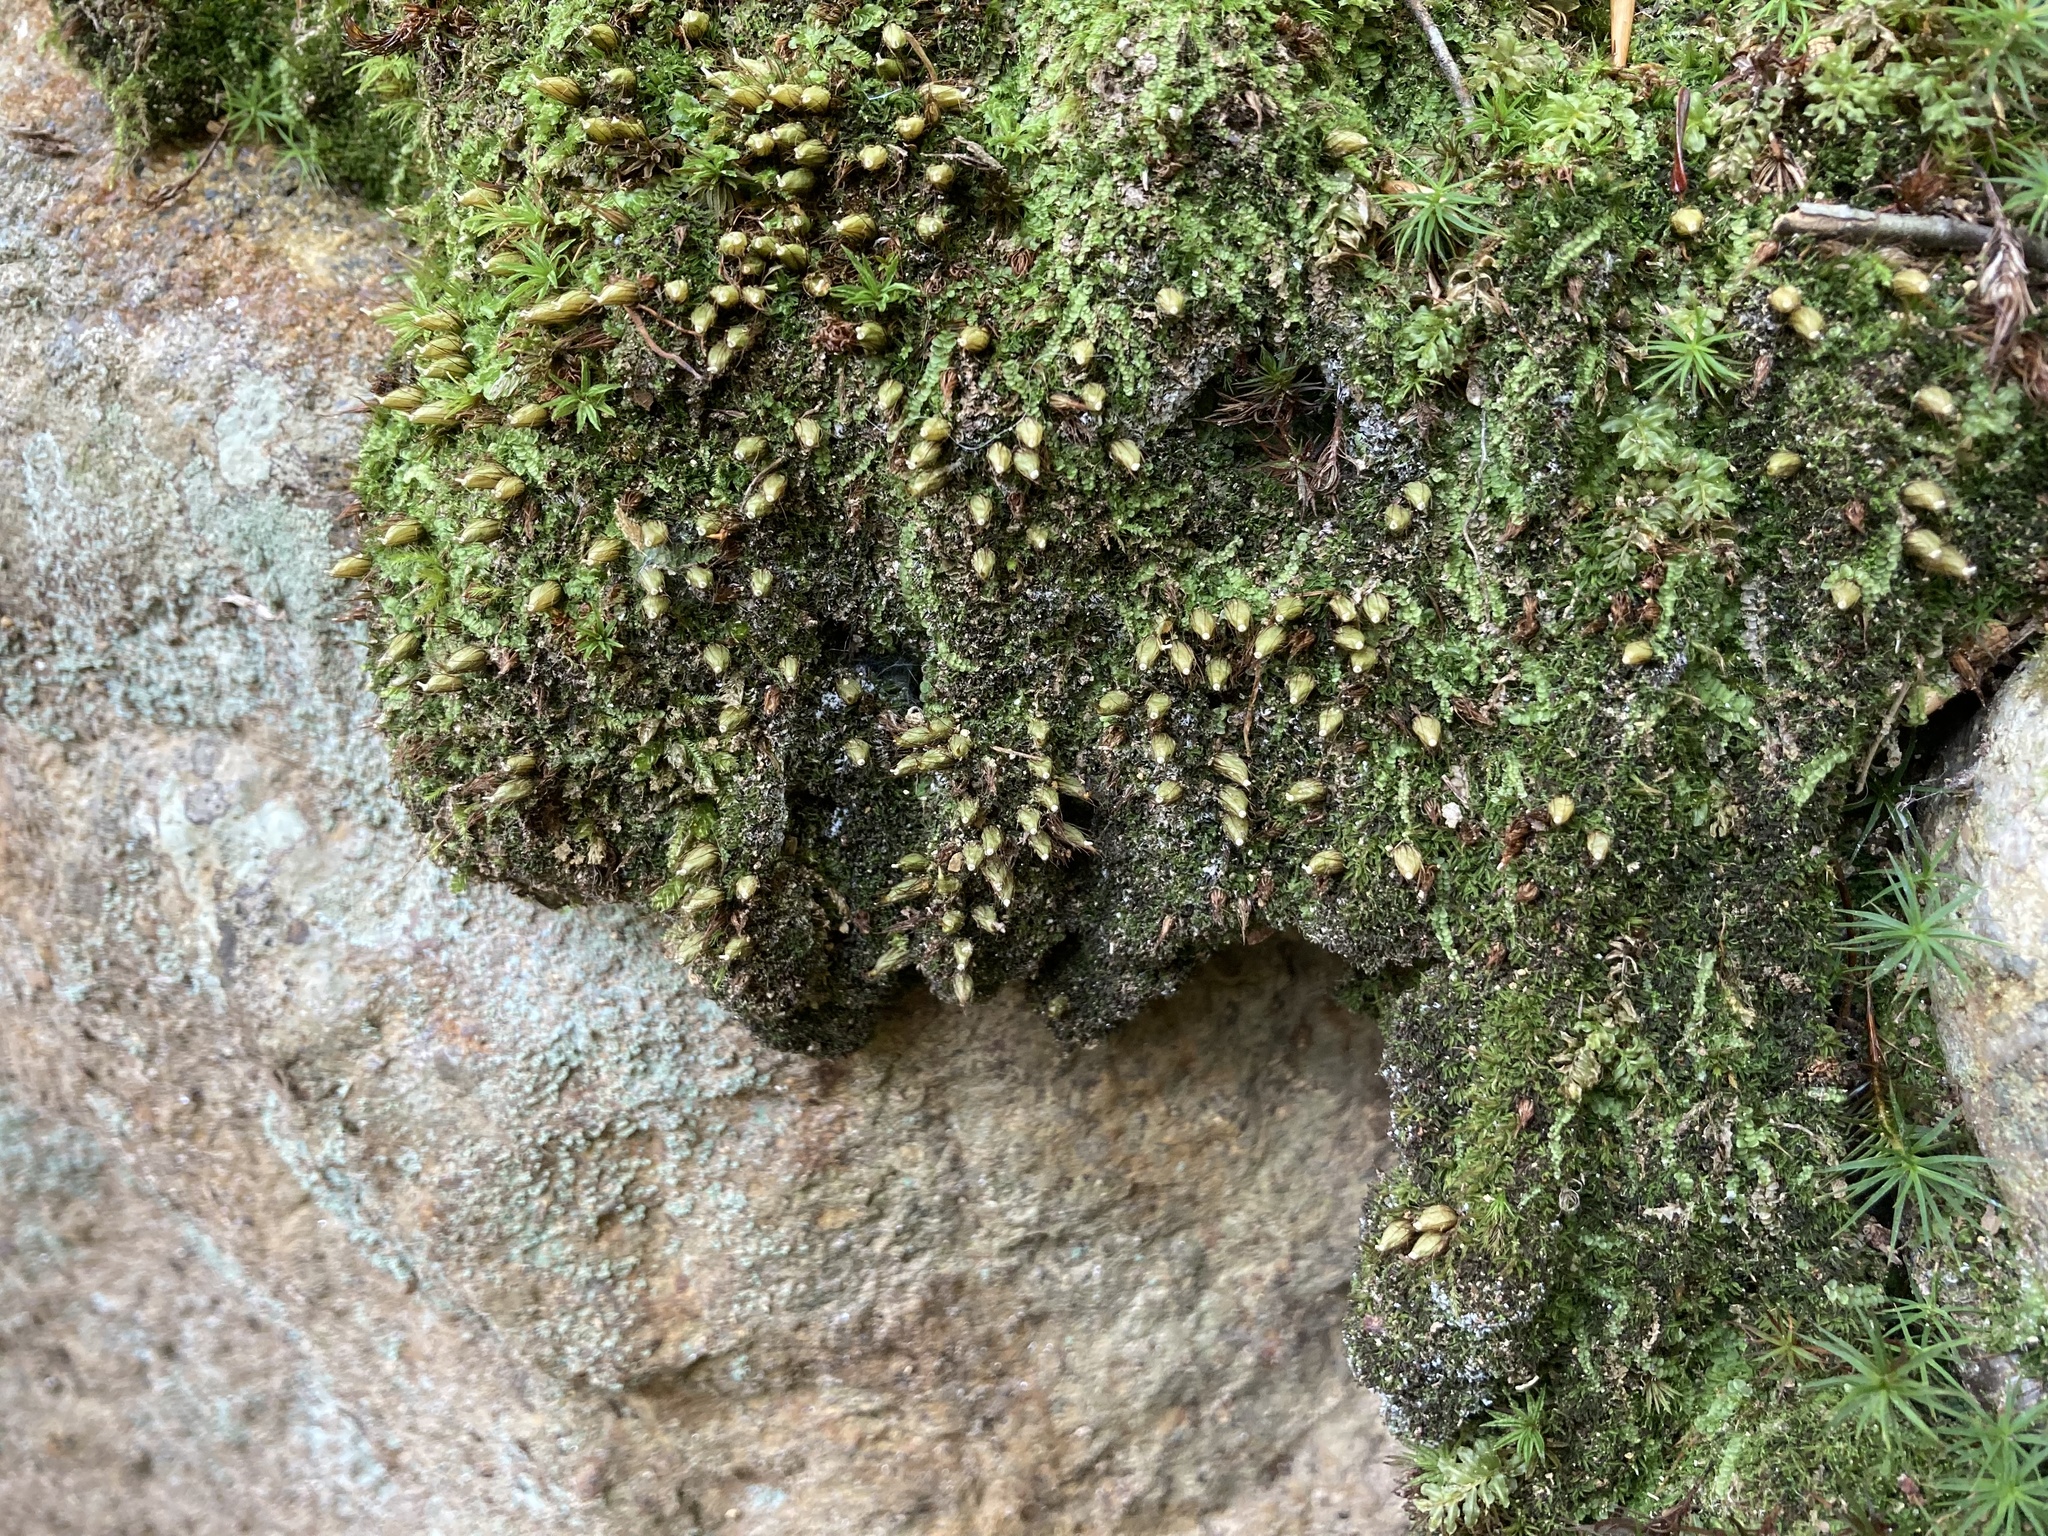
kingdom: Plantae
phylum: Bryophyta
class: Bryopsida
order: Diphysciales
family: Diphysciaceae
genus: Diphyscium
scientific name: Diphyscium foliosum
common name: Nut moss
